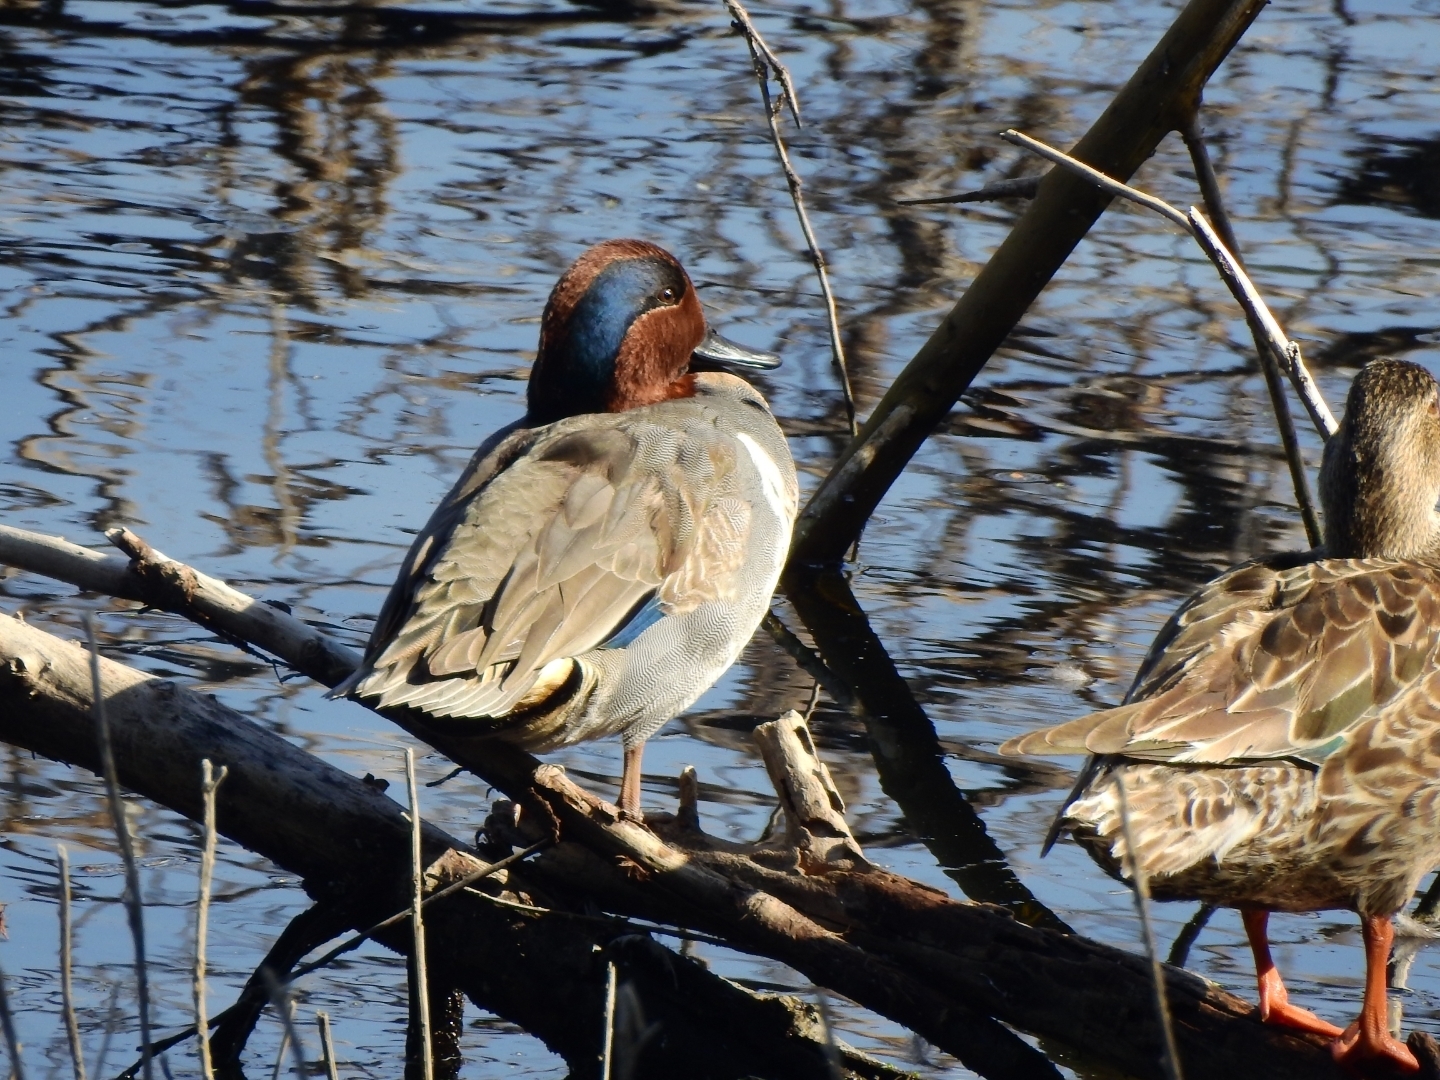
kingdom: Animalia
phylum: Chordata
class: Aves
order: Anseriformes
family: Anatidae
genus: Anas
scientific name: Anas crecca
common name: Eurasian teal
